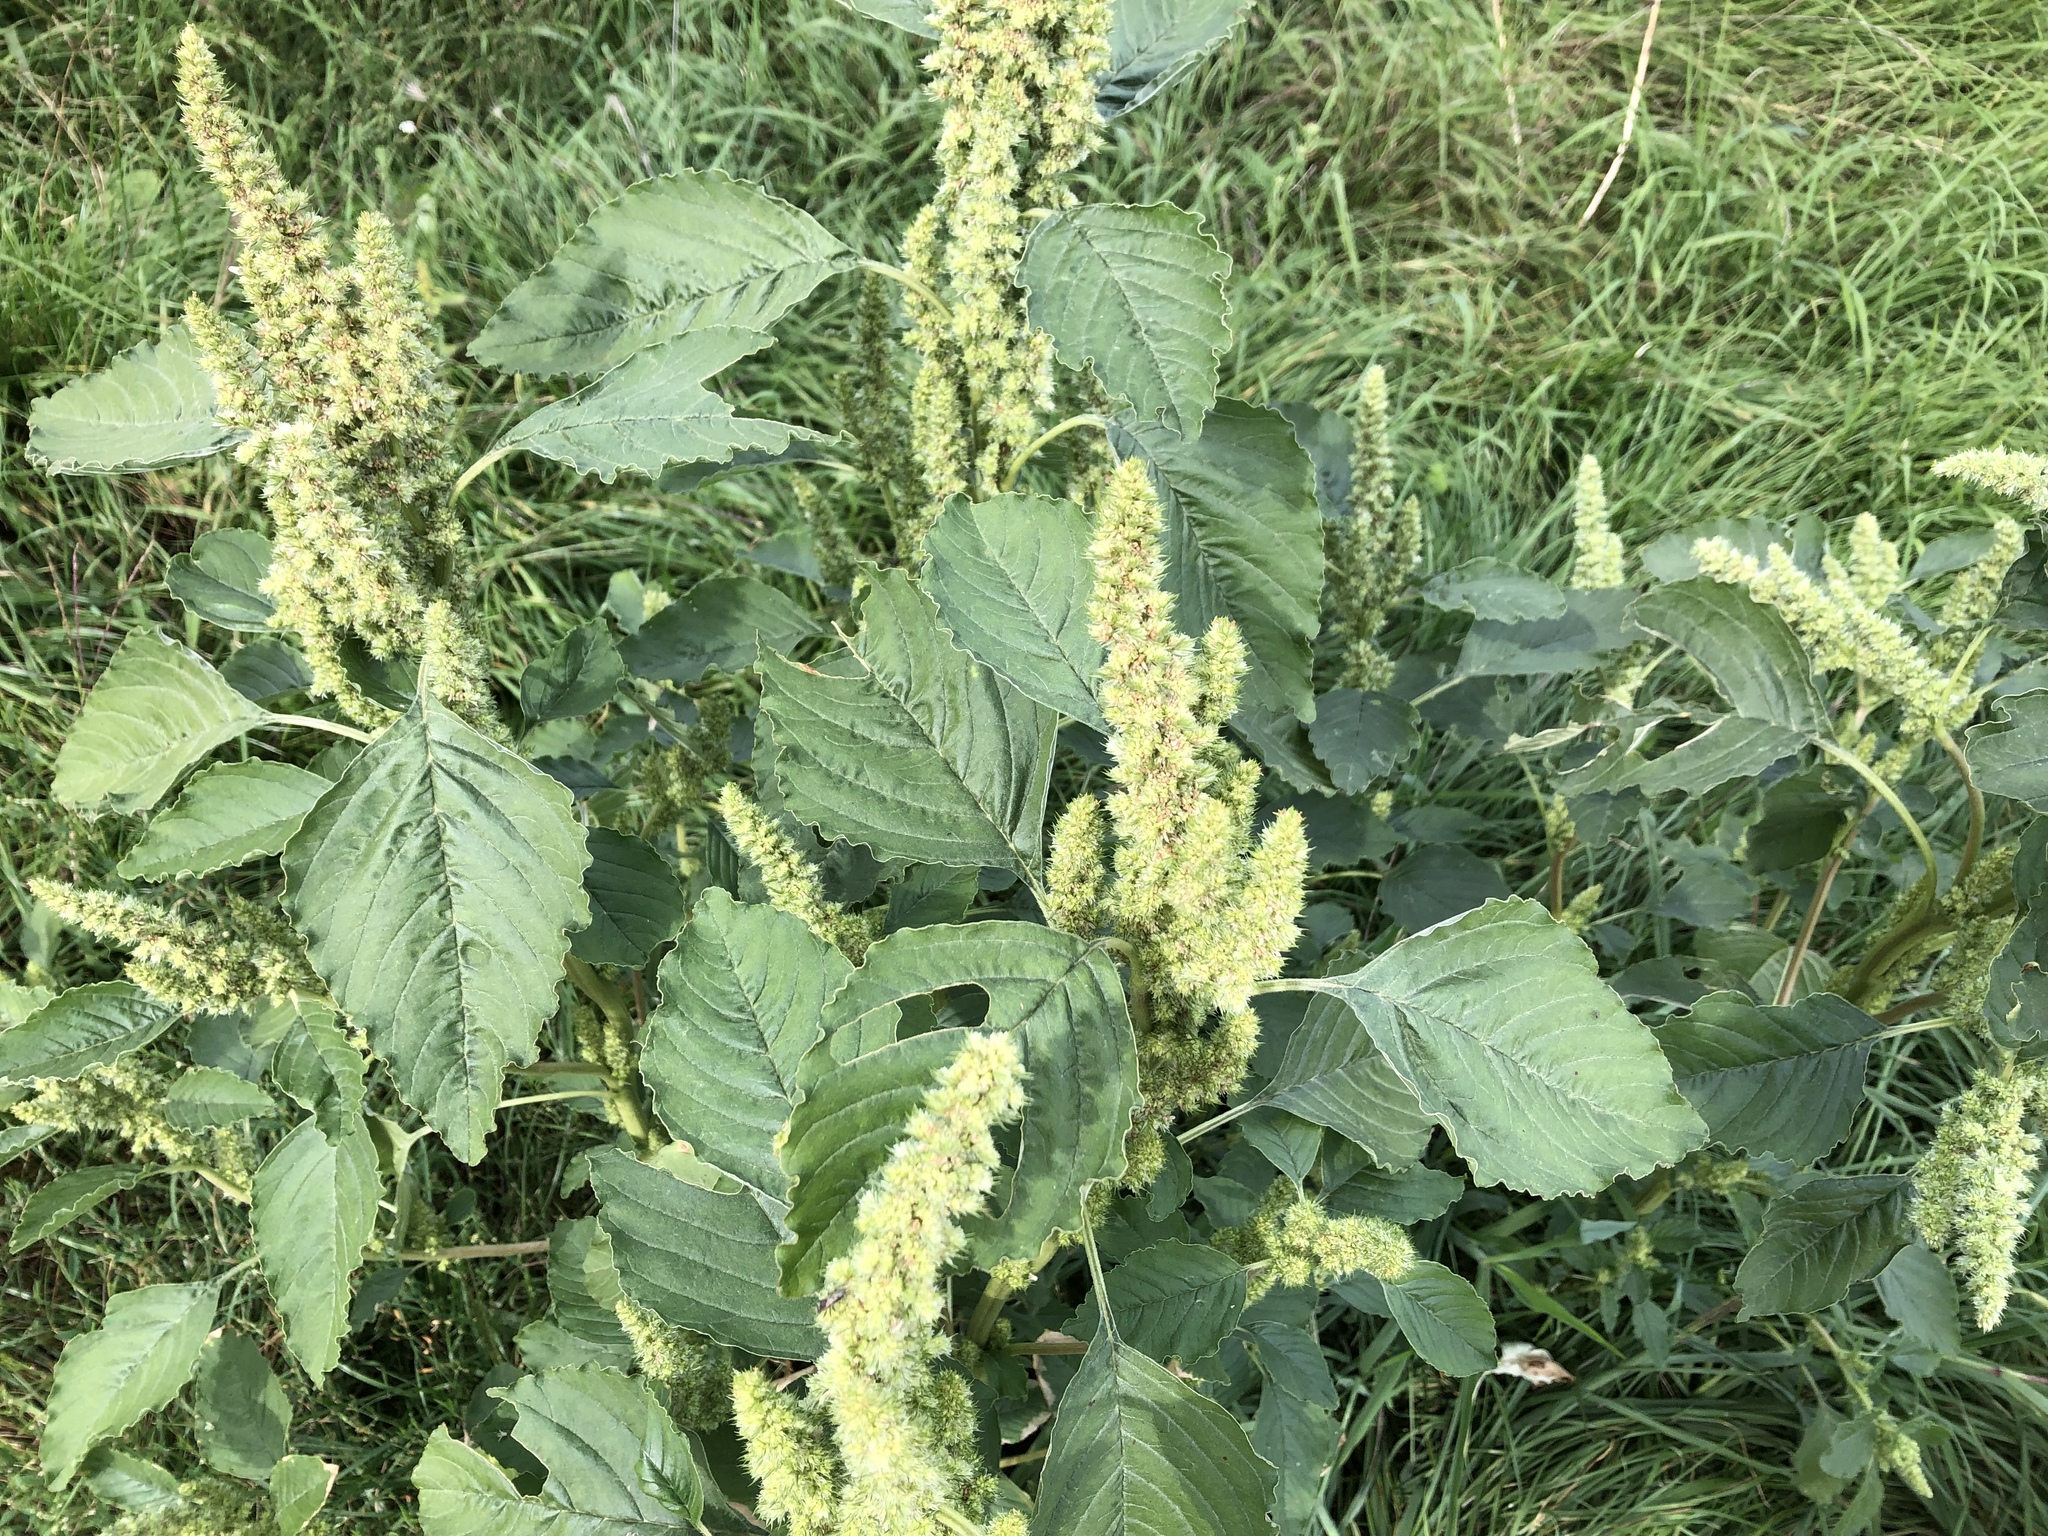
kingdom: Plantae
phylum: Tracheophyta
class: Magnoliopsida
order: Caryophyllales
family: Amaranthaceae
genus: Amaranthus
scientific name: Amaranthus retroflexus
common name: Redroot amaranth
